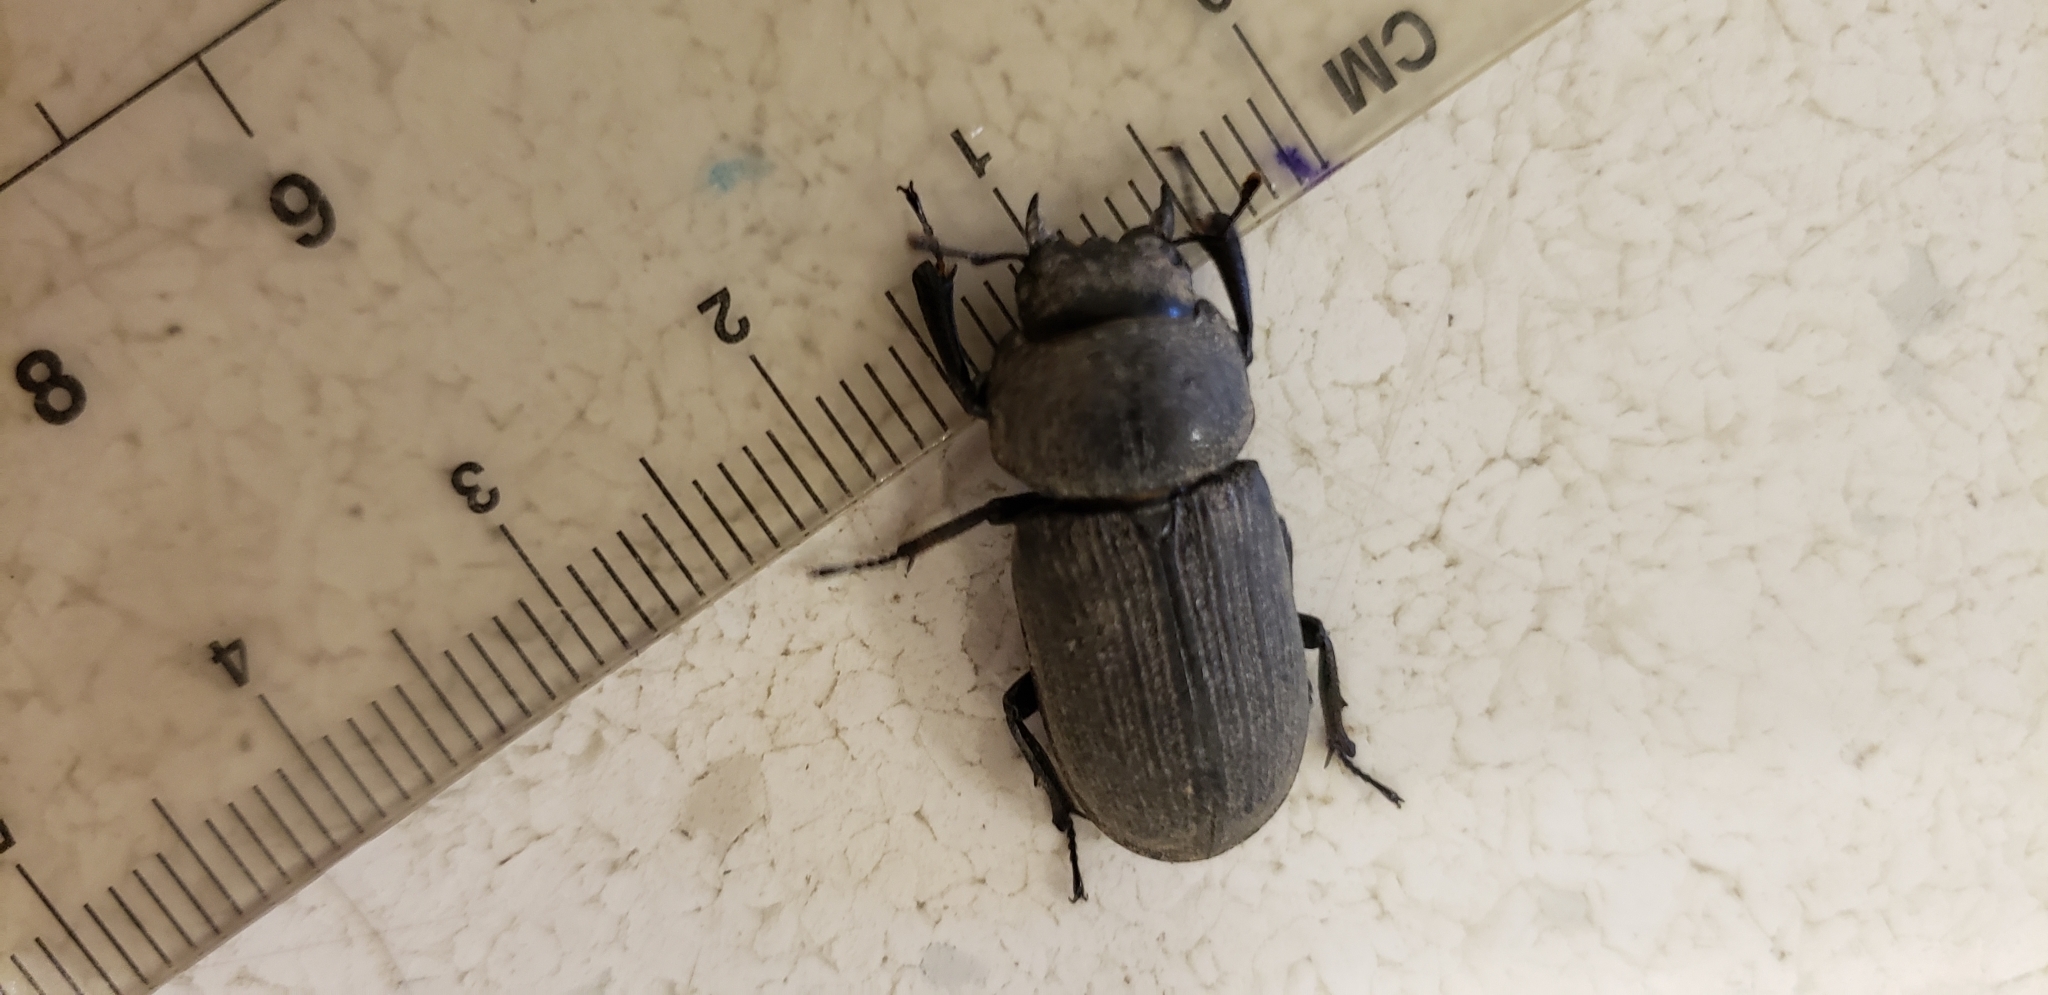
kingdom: Animalia
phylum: Arthropoda
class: Insecta
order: Coleoptera
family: Lucanidae
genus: Dorcus
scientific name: Dorcus parallelus
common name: Antelope beetle
